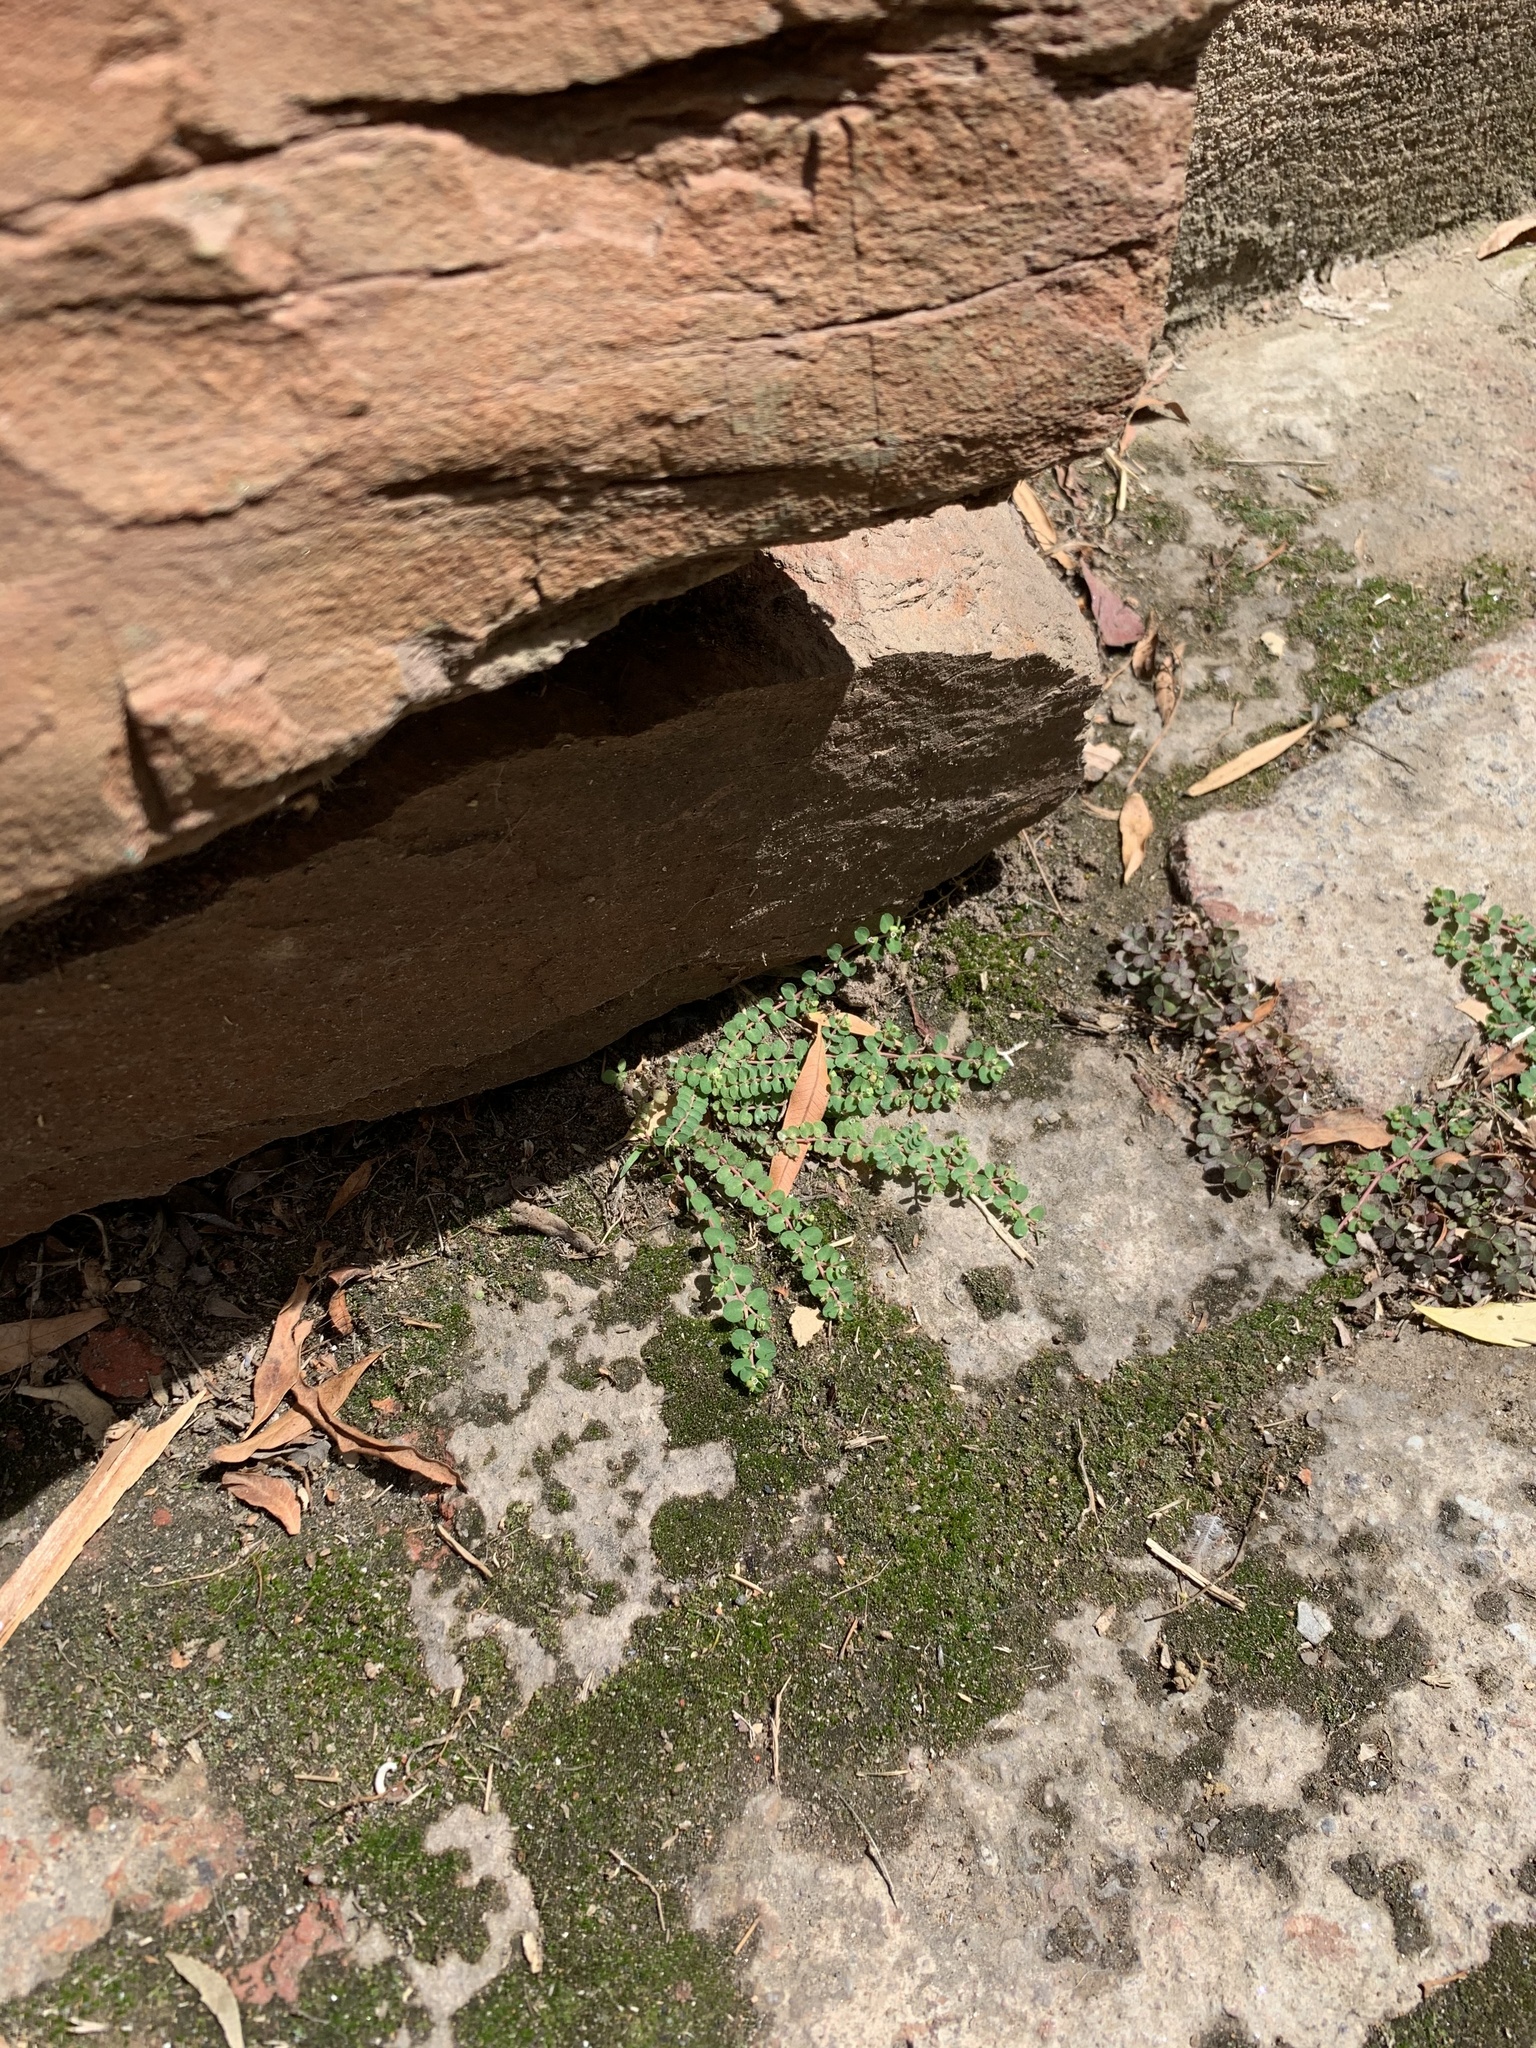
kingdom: Plantae
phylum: Tracheophyta
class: Magnoliopsida
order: Malpighiales
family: Euphorbiaceae
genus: Euphorbia
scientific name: Euphorbia serpens
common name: Matted sandmat
